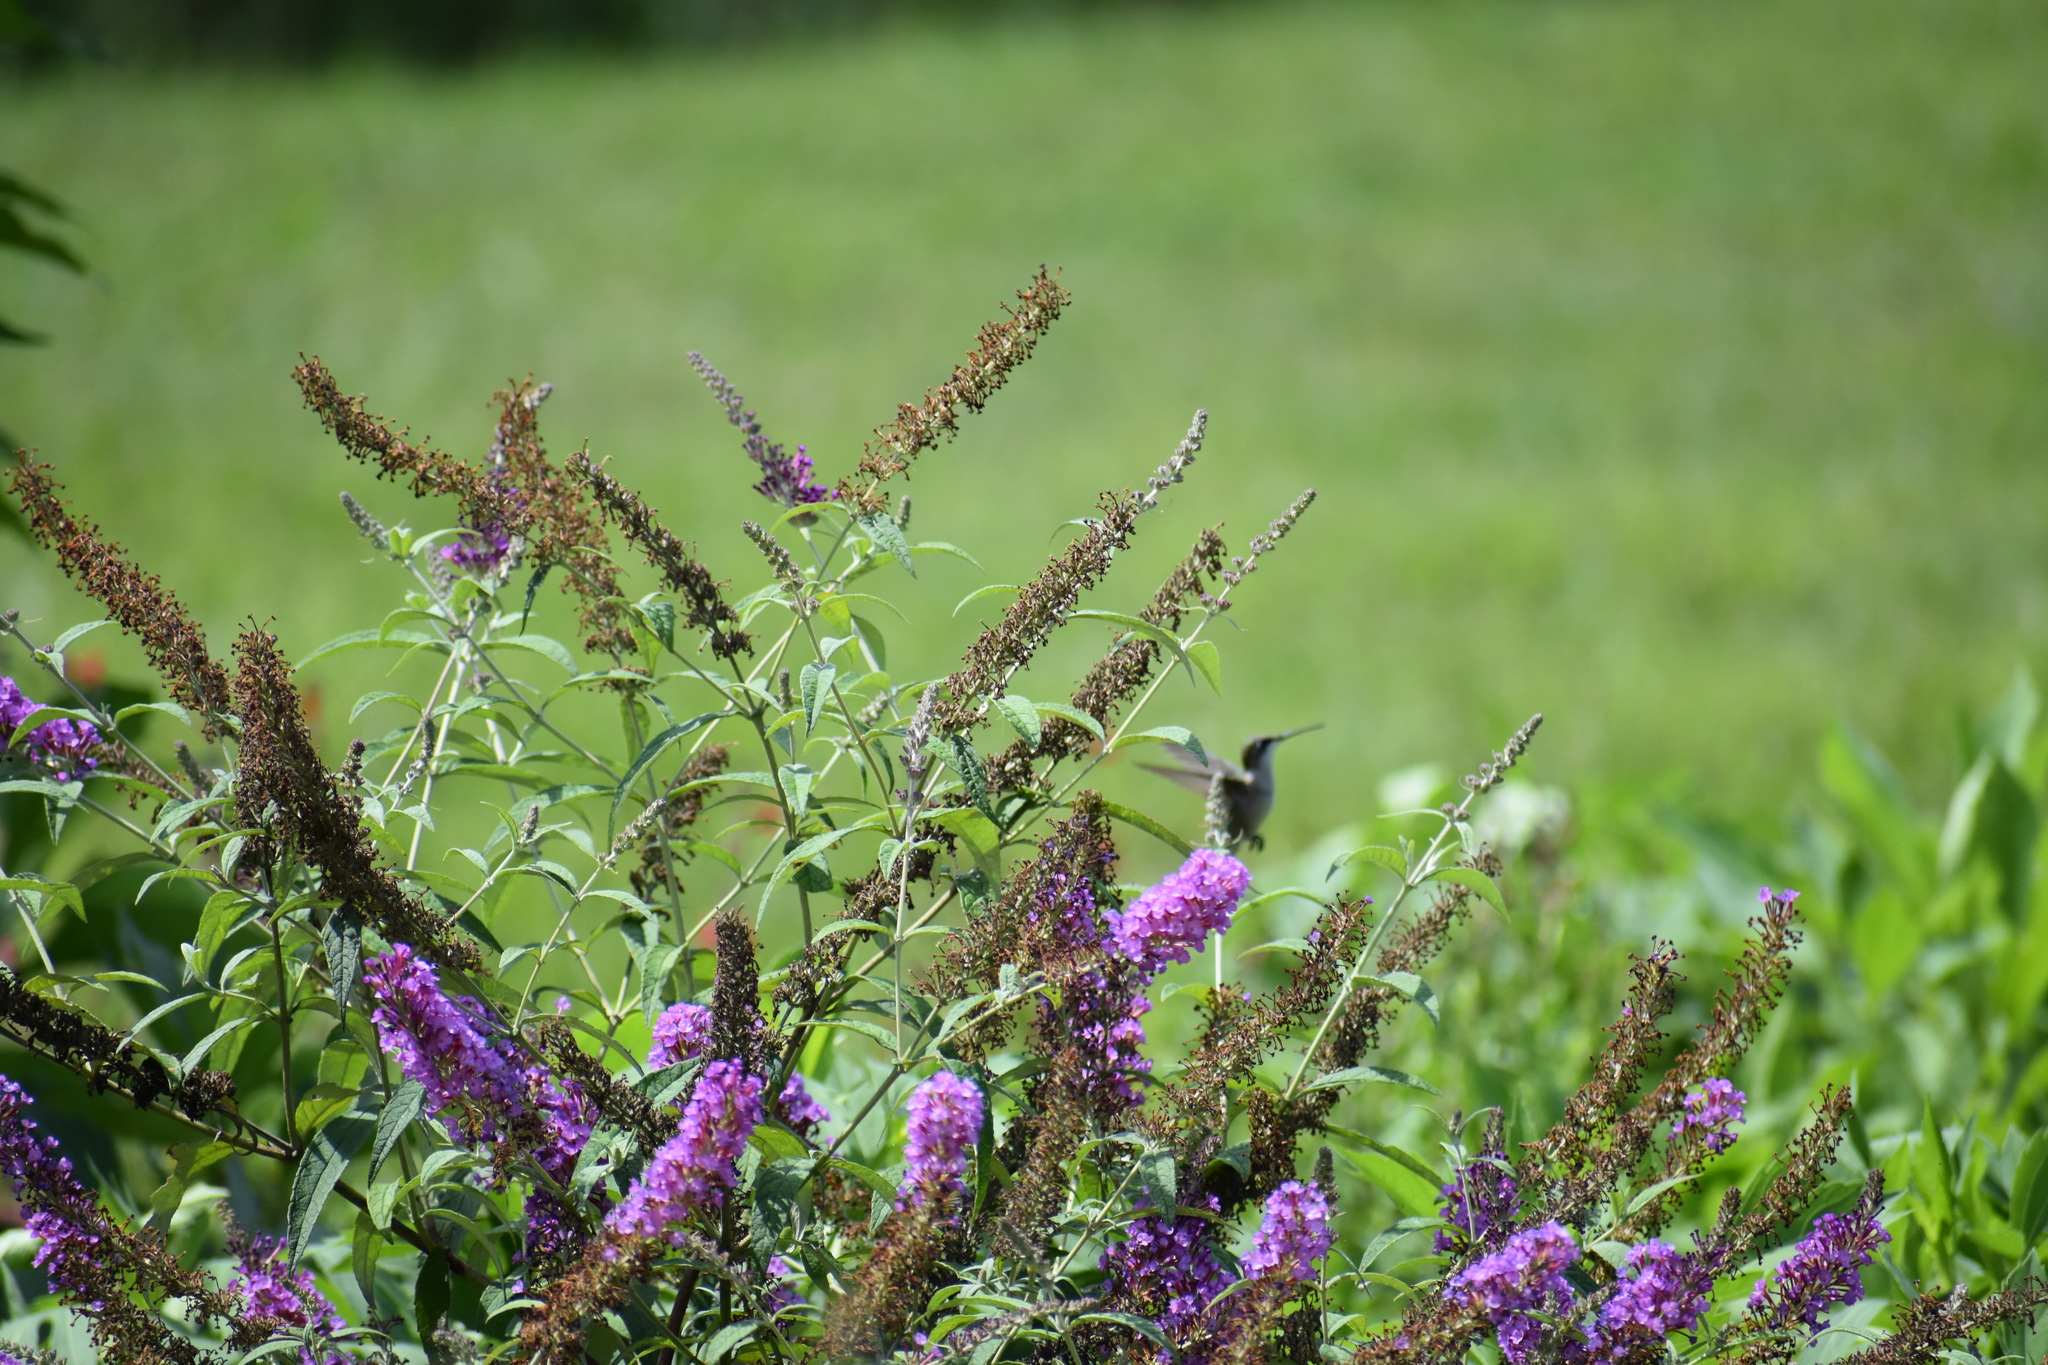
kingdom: Animalia
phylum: Chordata
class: Aves
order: Apodiformes
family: Trochilidae
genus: Archilochus
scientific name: Archilochus colubris
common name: Ruby-throated hummingbird
